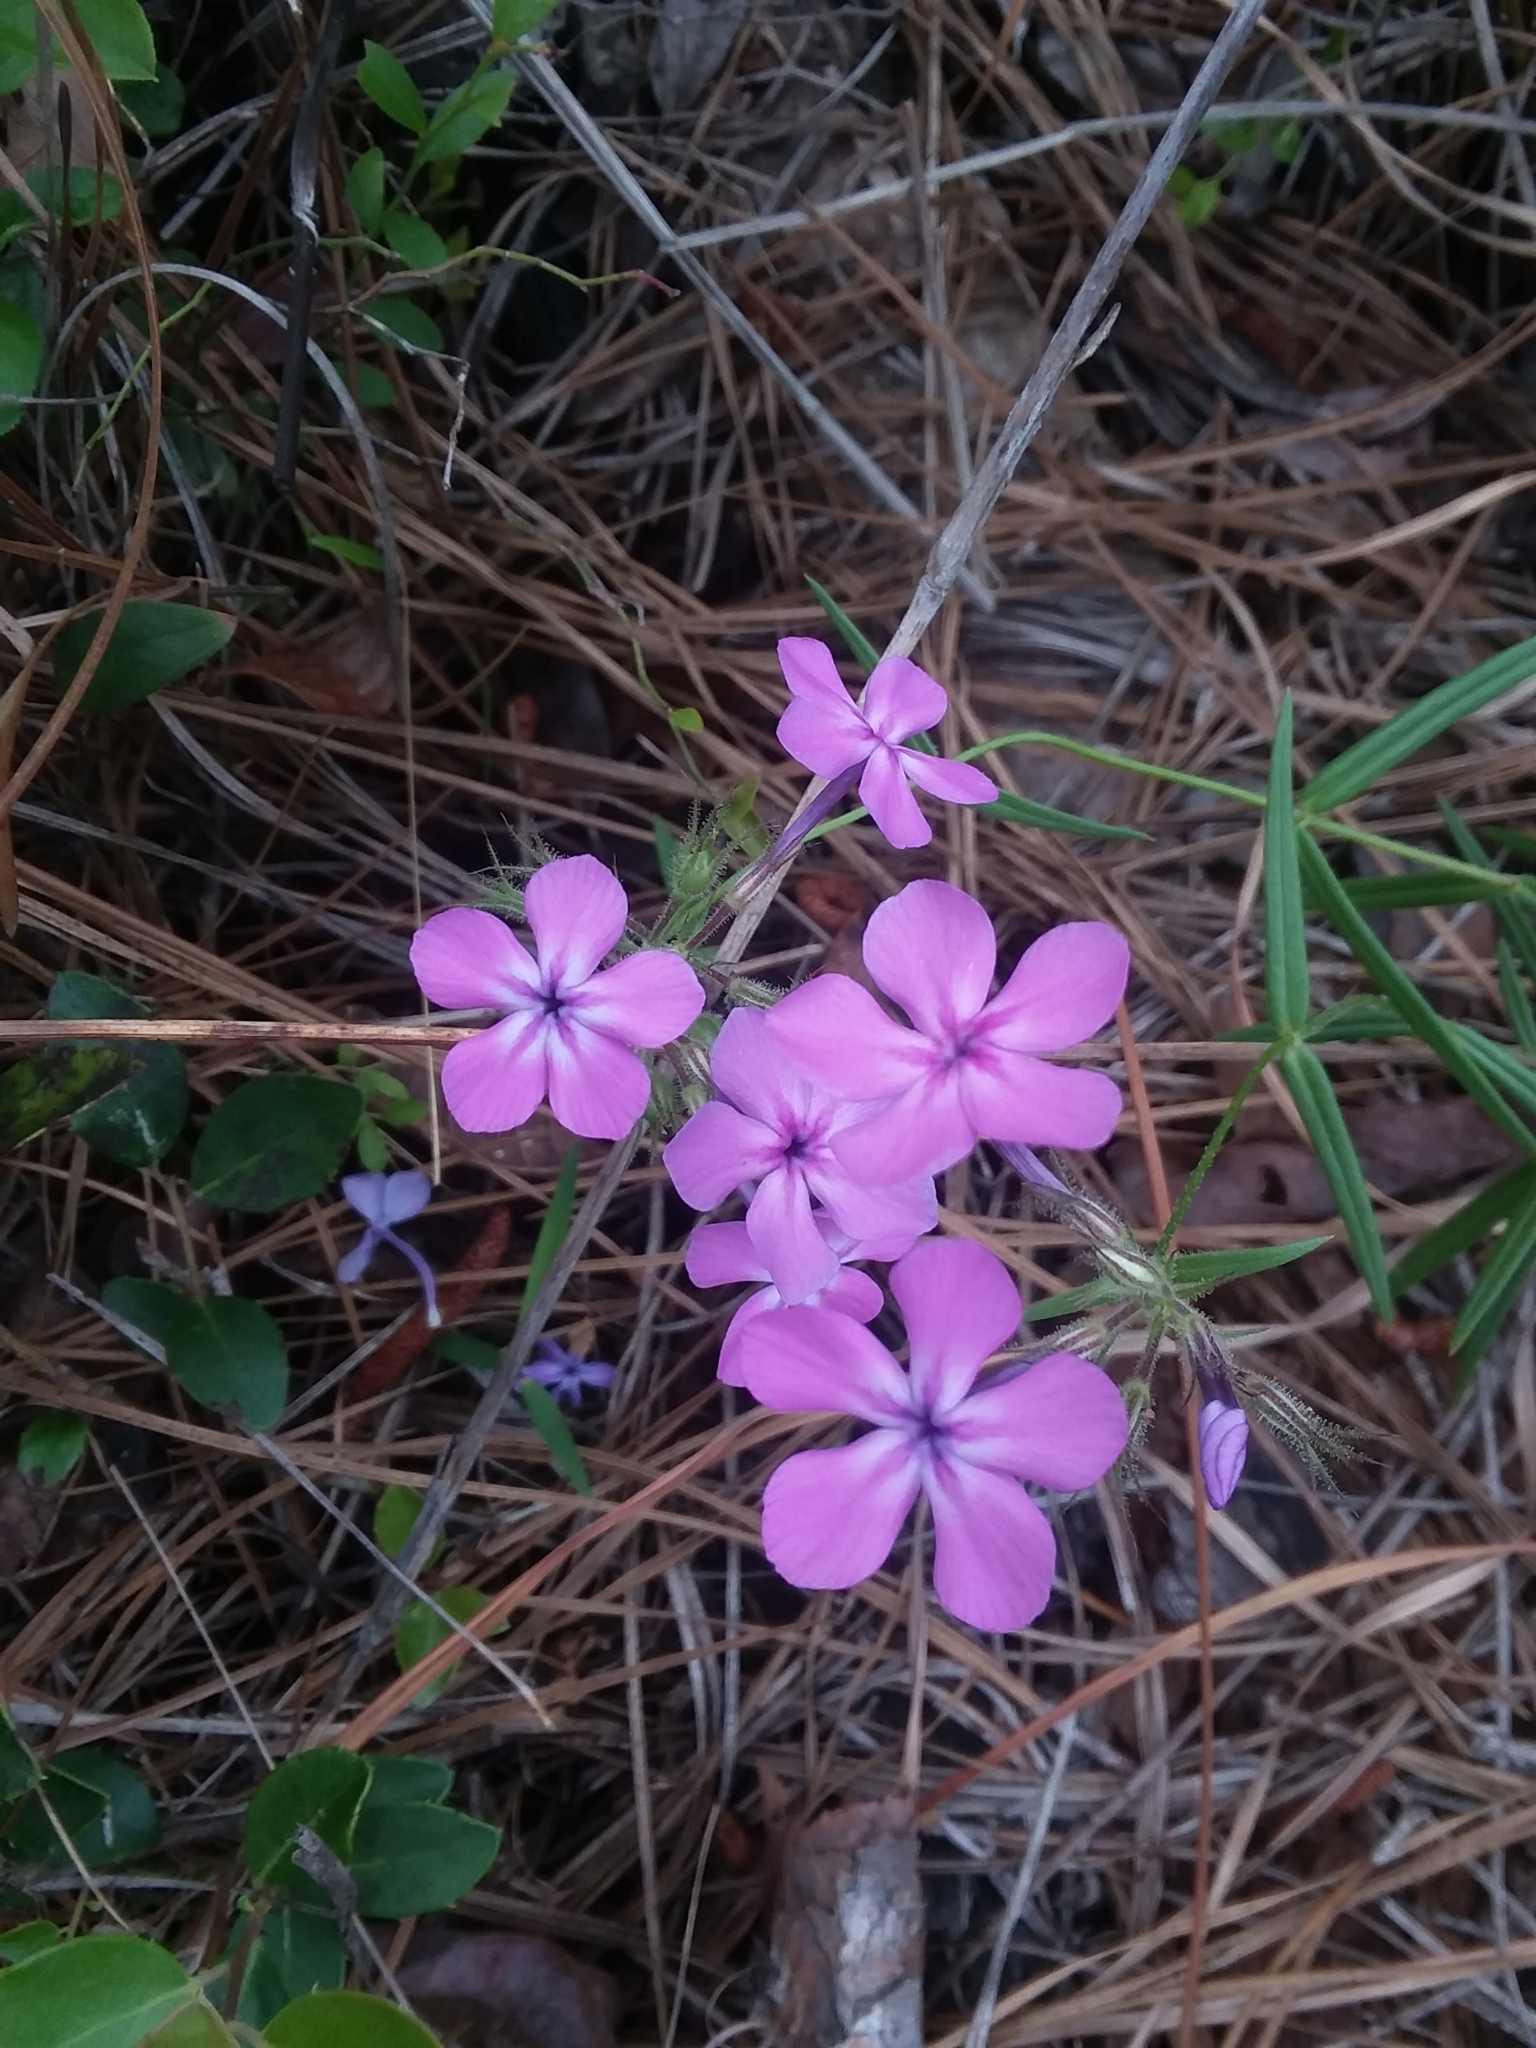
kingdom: Plantae
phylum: Tracheophyta
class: Magnoliopsida
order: Ericales
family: Polemoniaceae
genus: Phlox
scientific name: Phlox pilosa
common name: Prairie phlox
